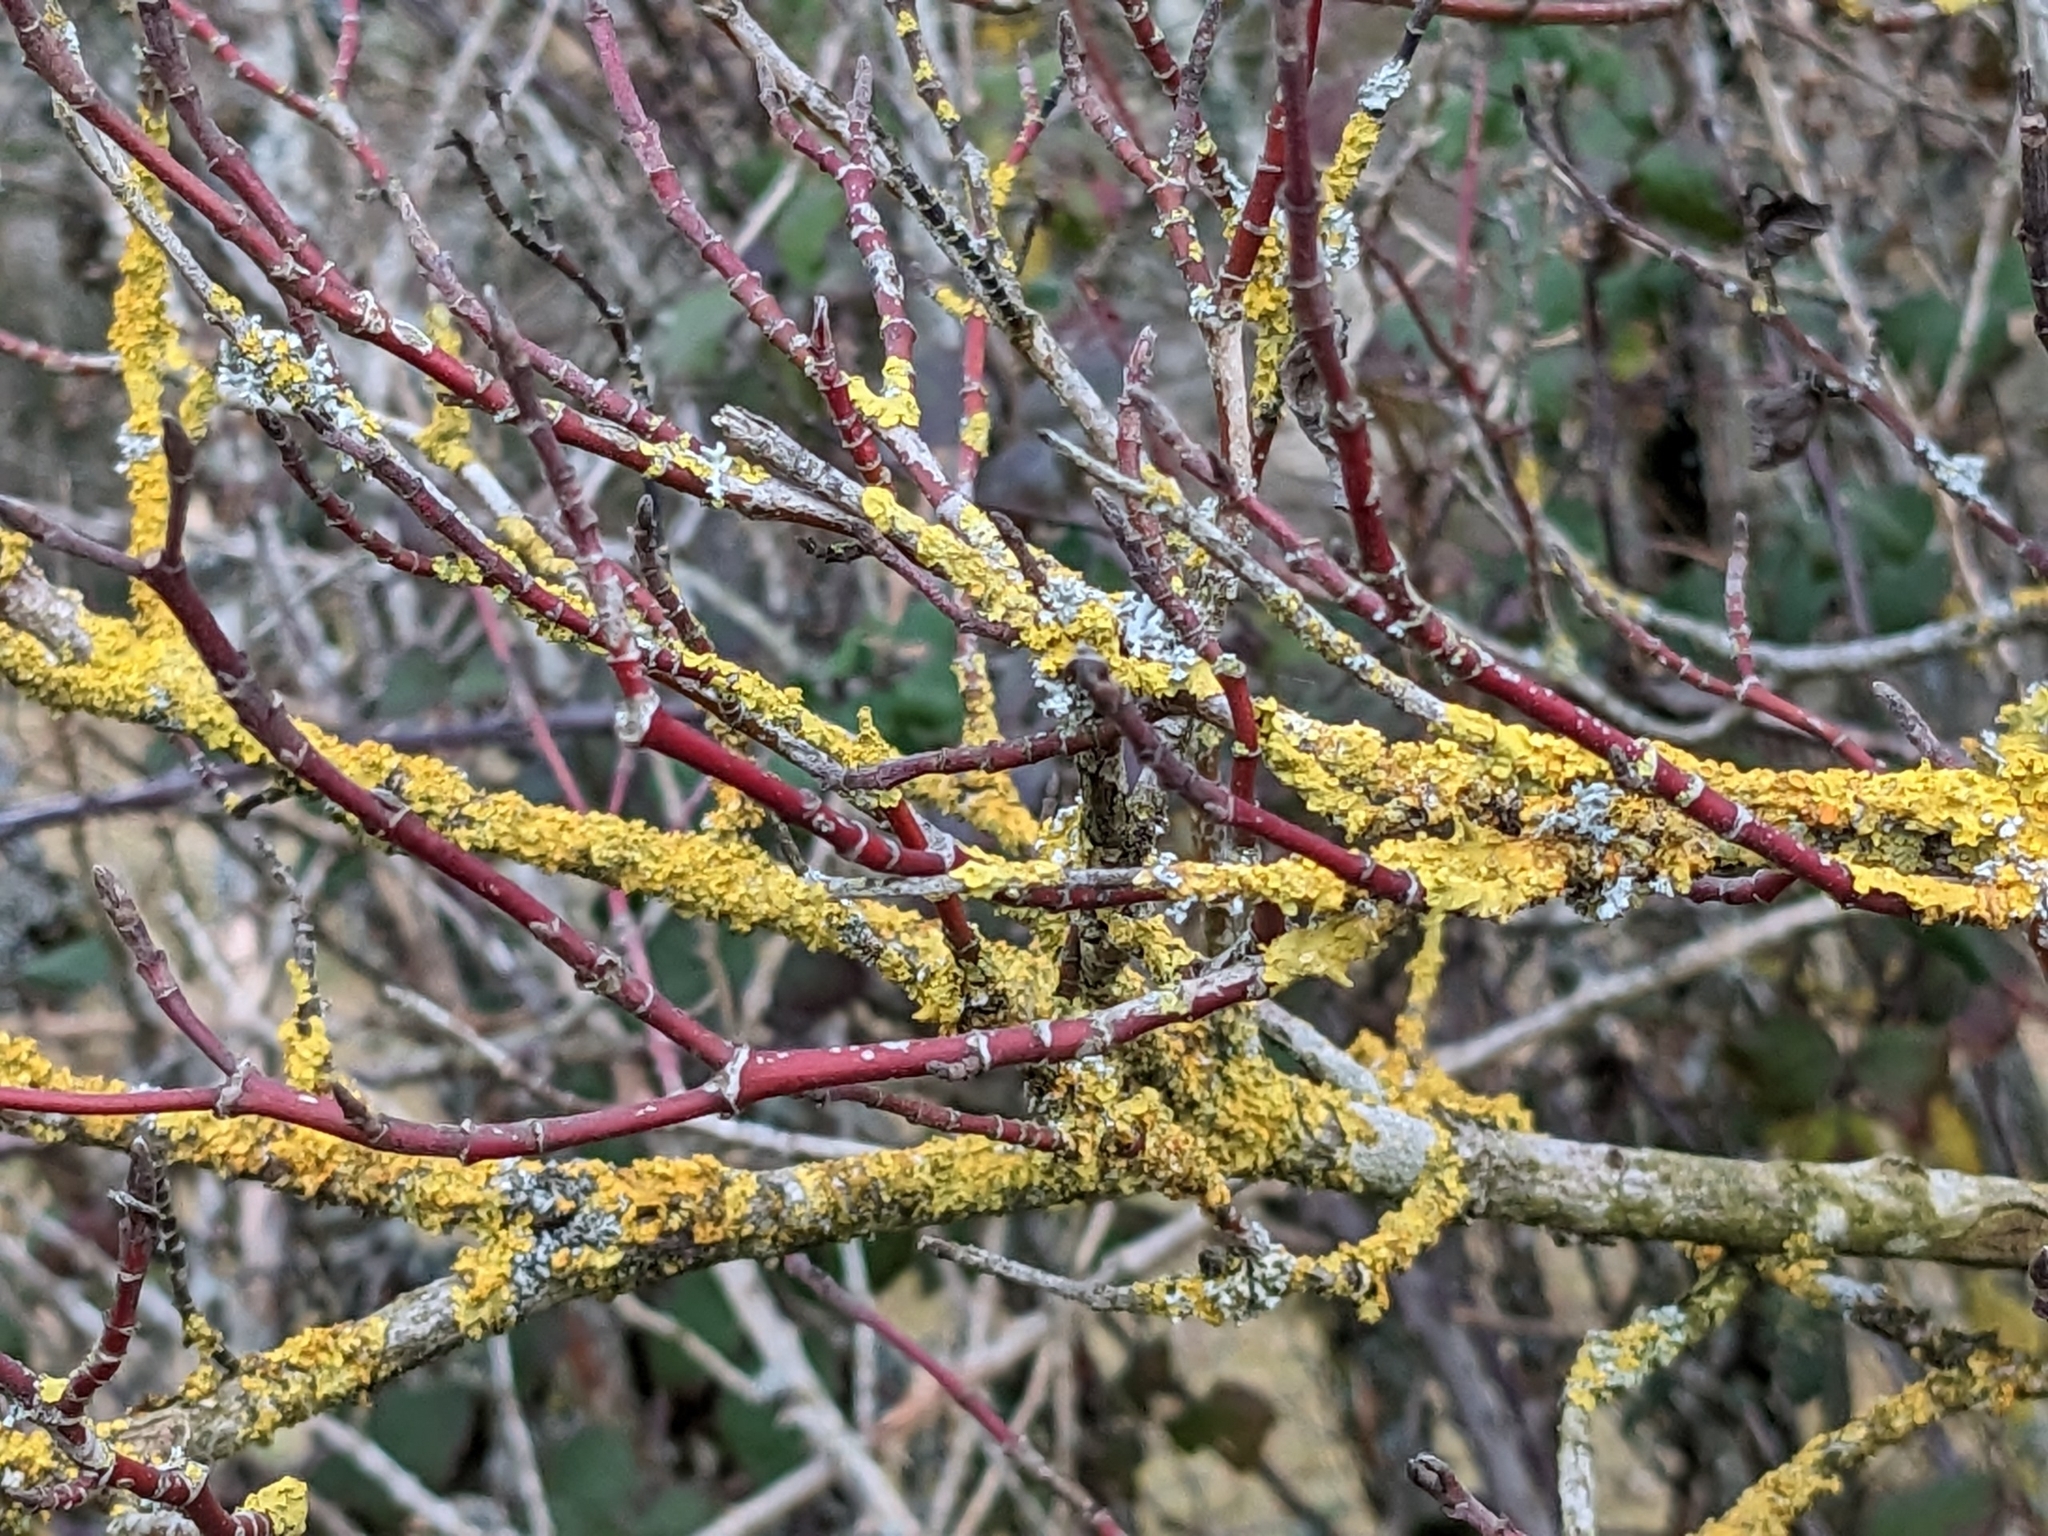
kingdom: Plantae
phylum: Tracheophyta
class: Magnoliopsida
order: Cornales
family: Cornaceae
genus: Cornus
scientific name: Cornus sanguinea
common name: Dogwood
